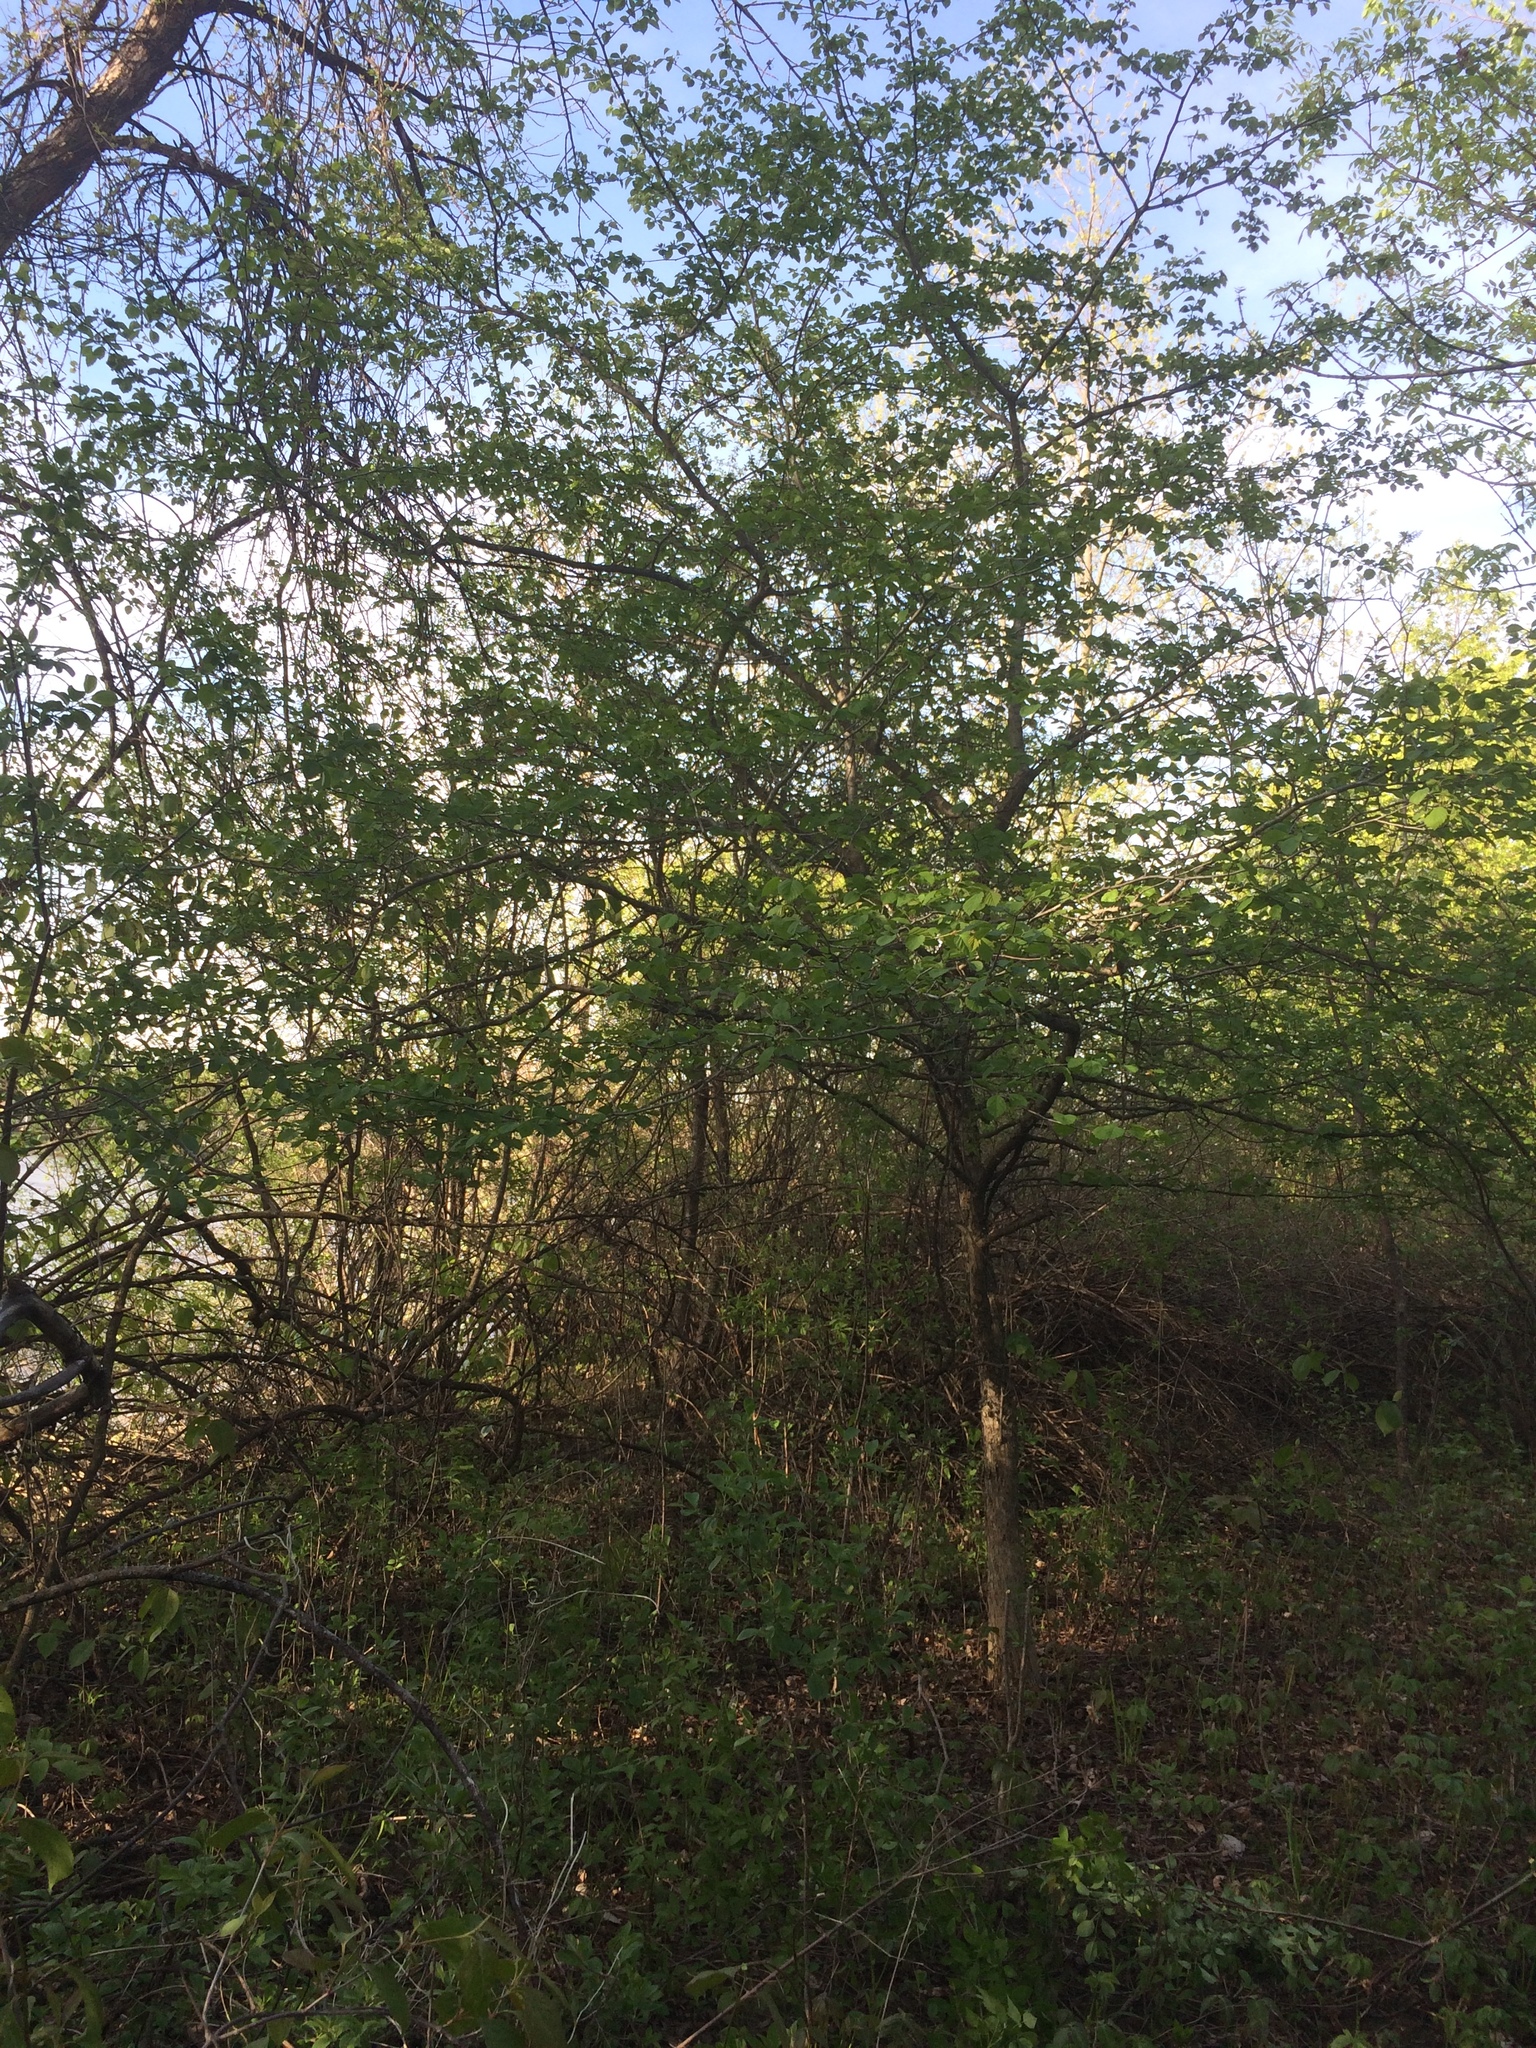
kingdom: Plantae
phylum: Tracheophyta
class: Magnoliopsida
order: Rosales
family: Rosaceae
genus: Crataegus
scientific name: Crataegus suborbiculata
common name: Caughnawaga hawthorn
